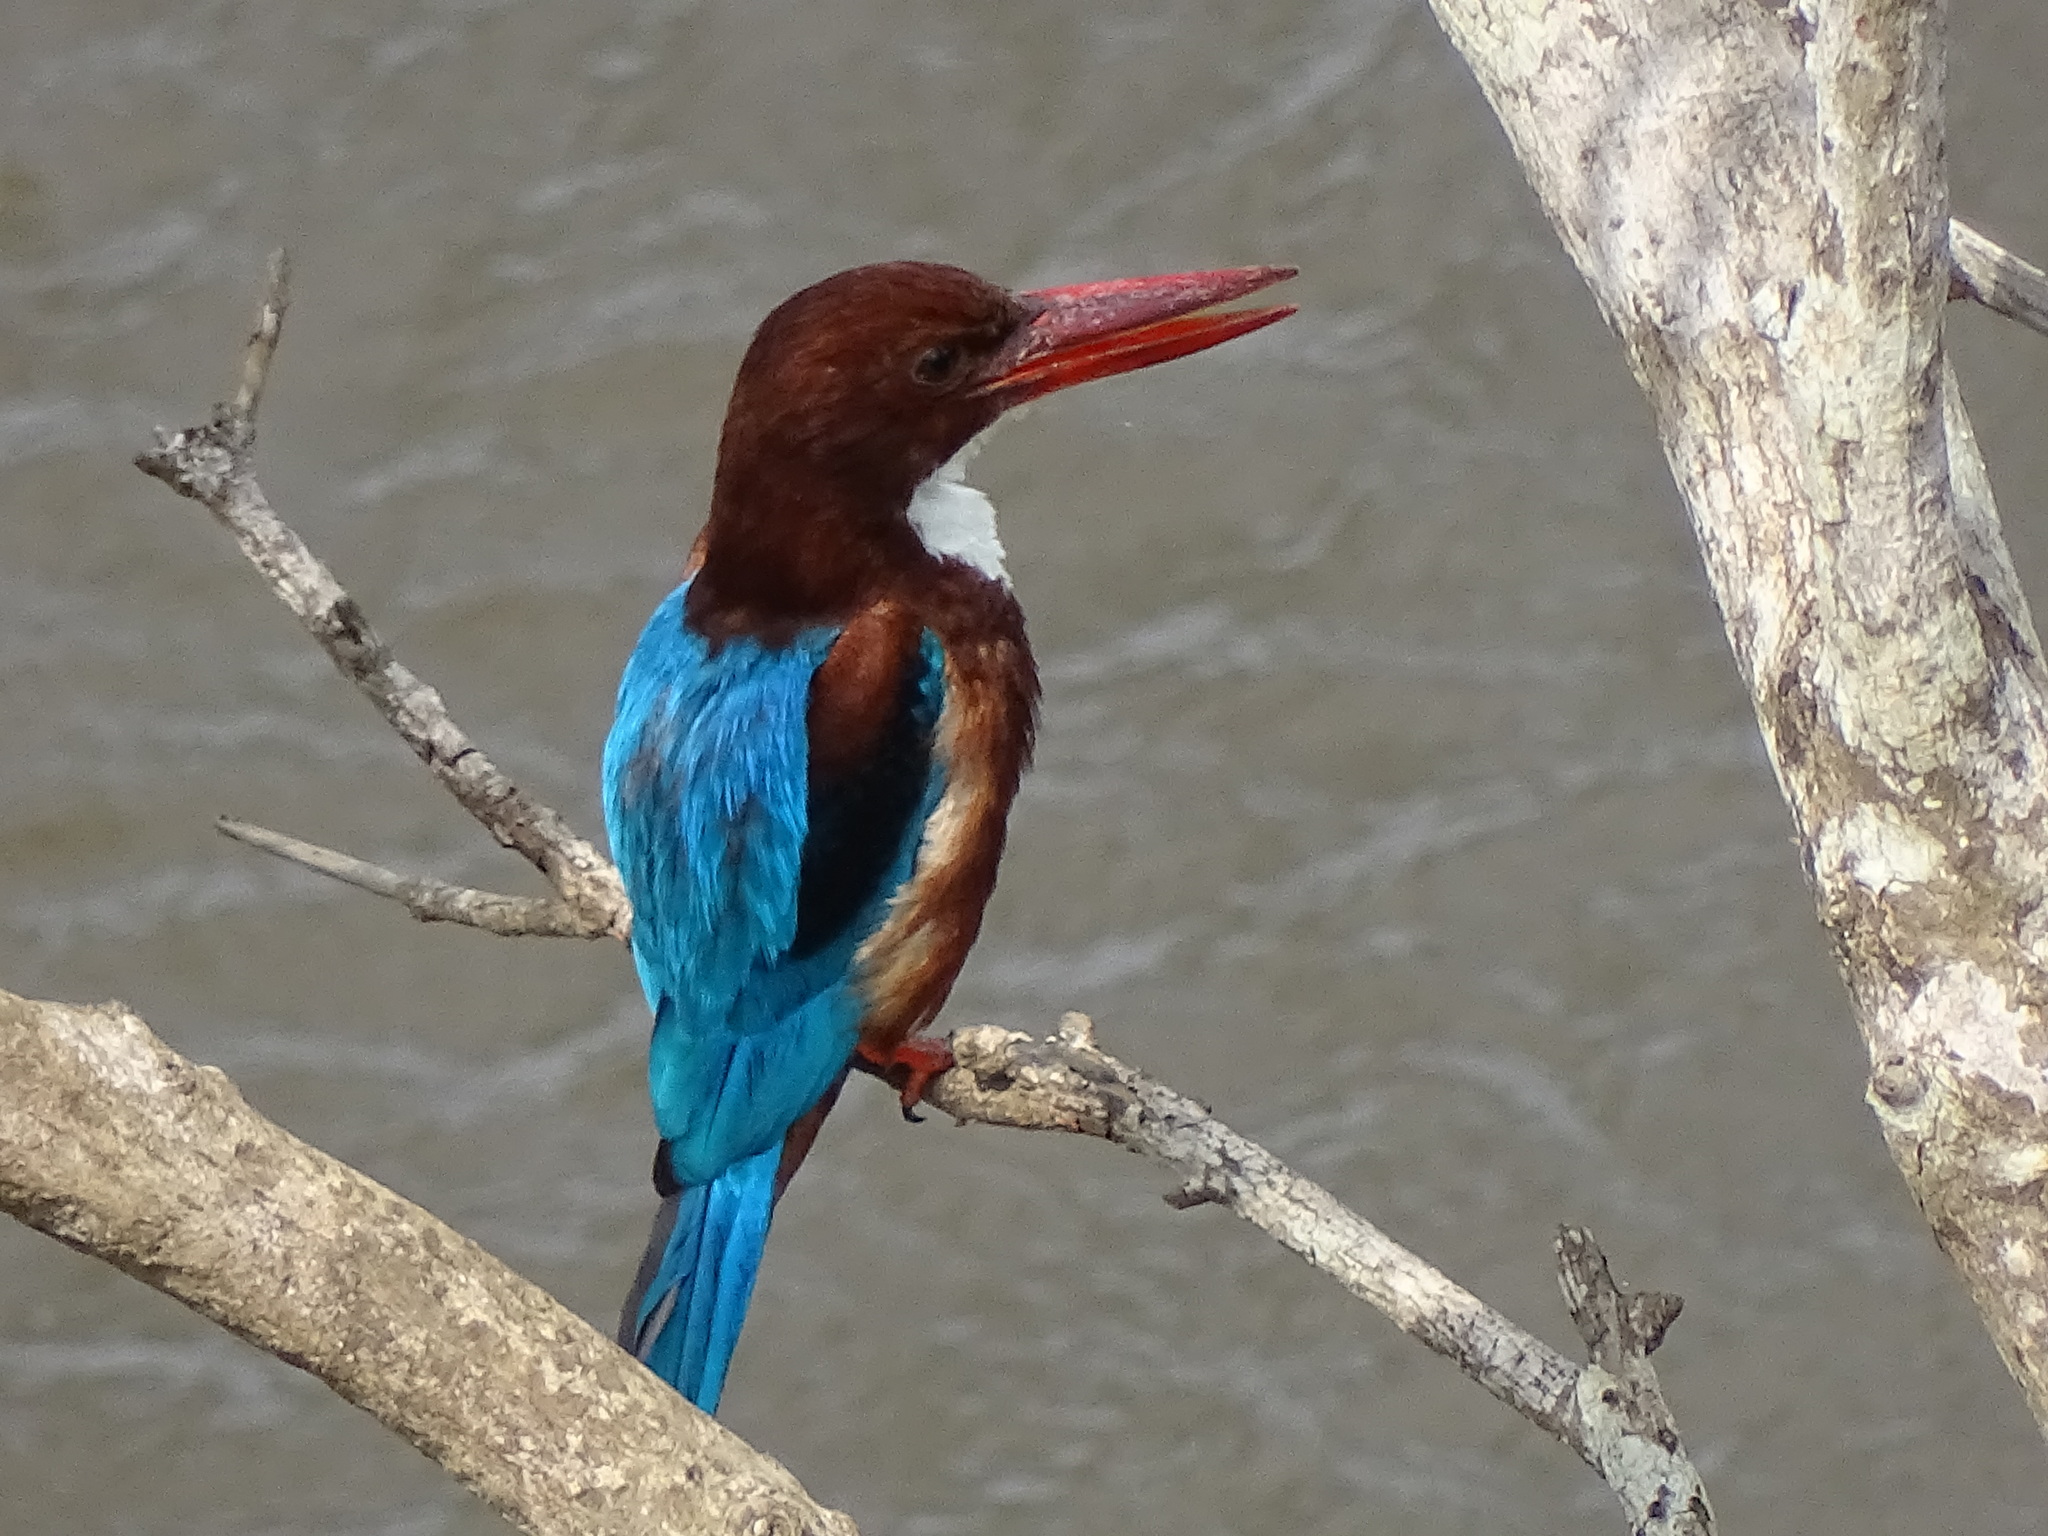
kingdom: Animalia
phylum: Chordata
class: Aves
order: Coraciiformes
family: Alcedinidae
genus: Halcyon
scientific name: Halcyon smyrnensis
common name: White-throated kingfisher
